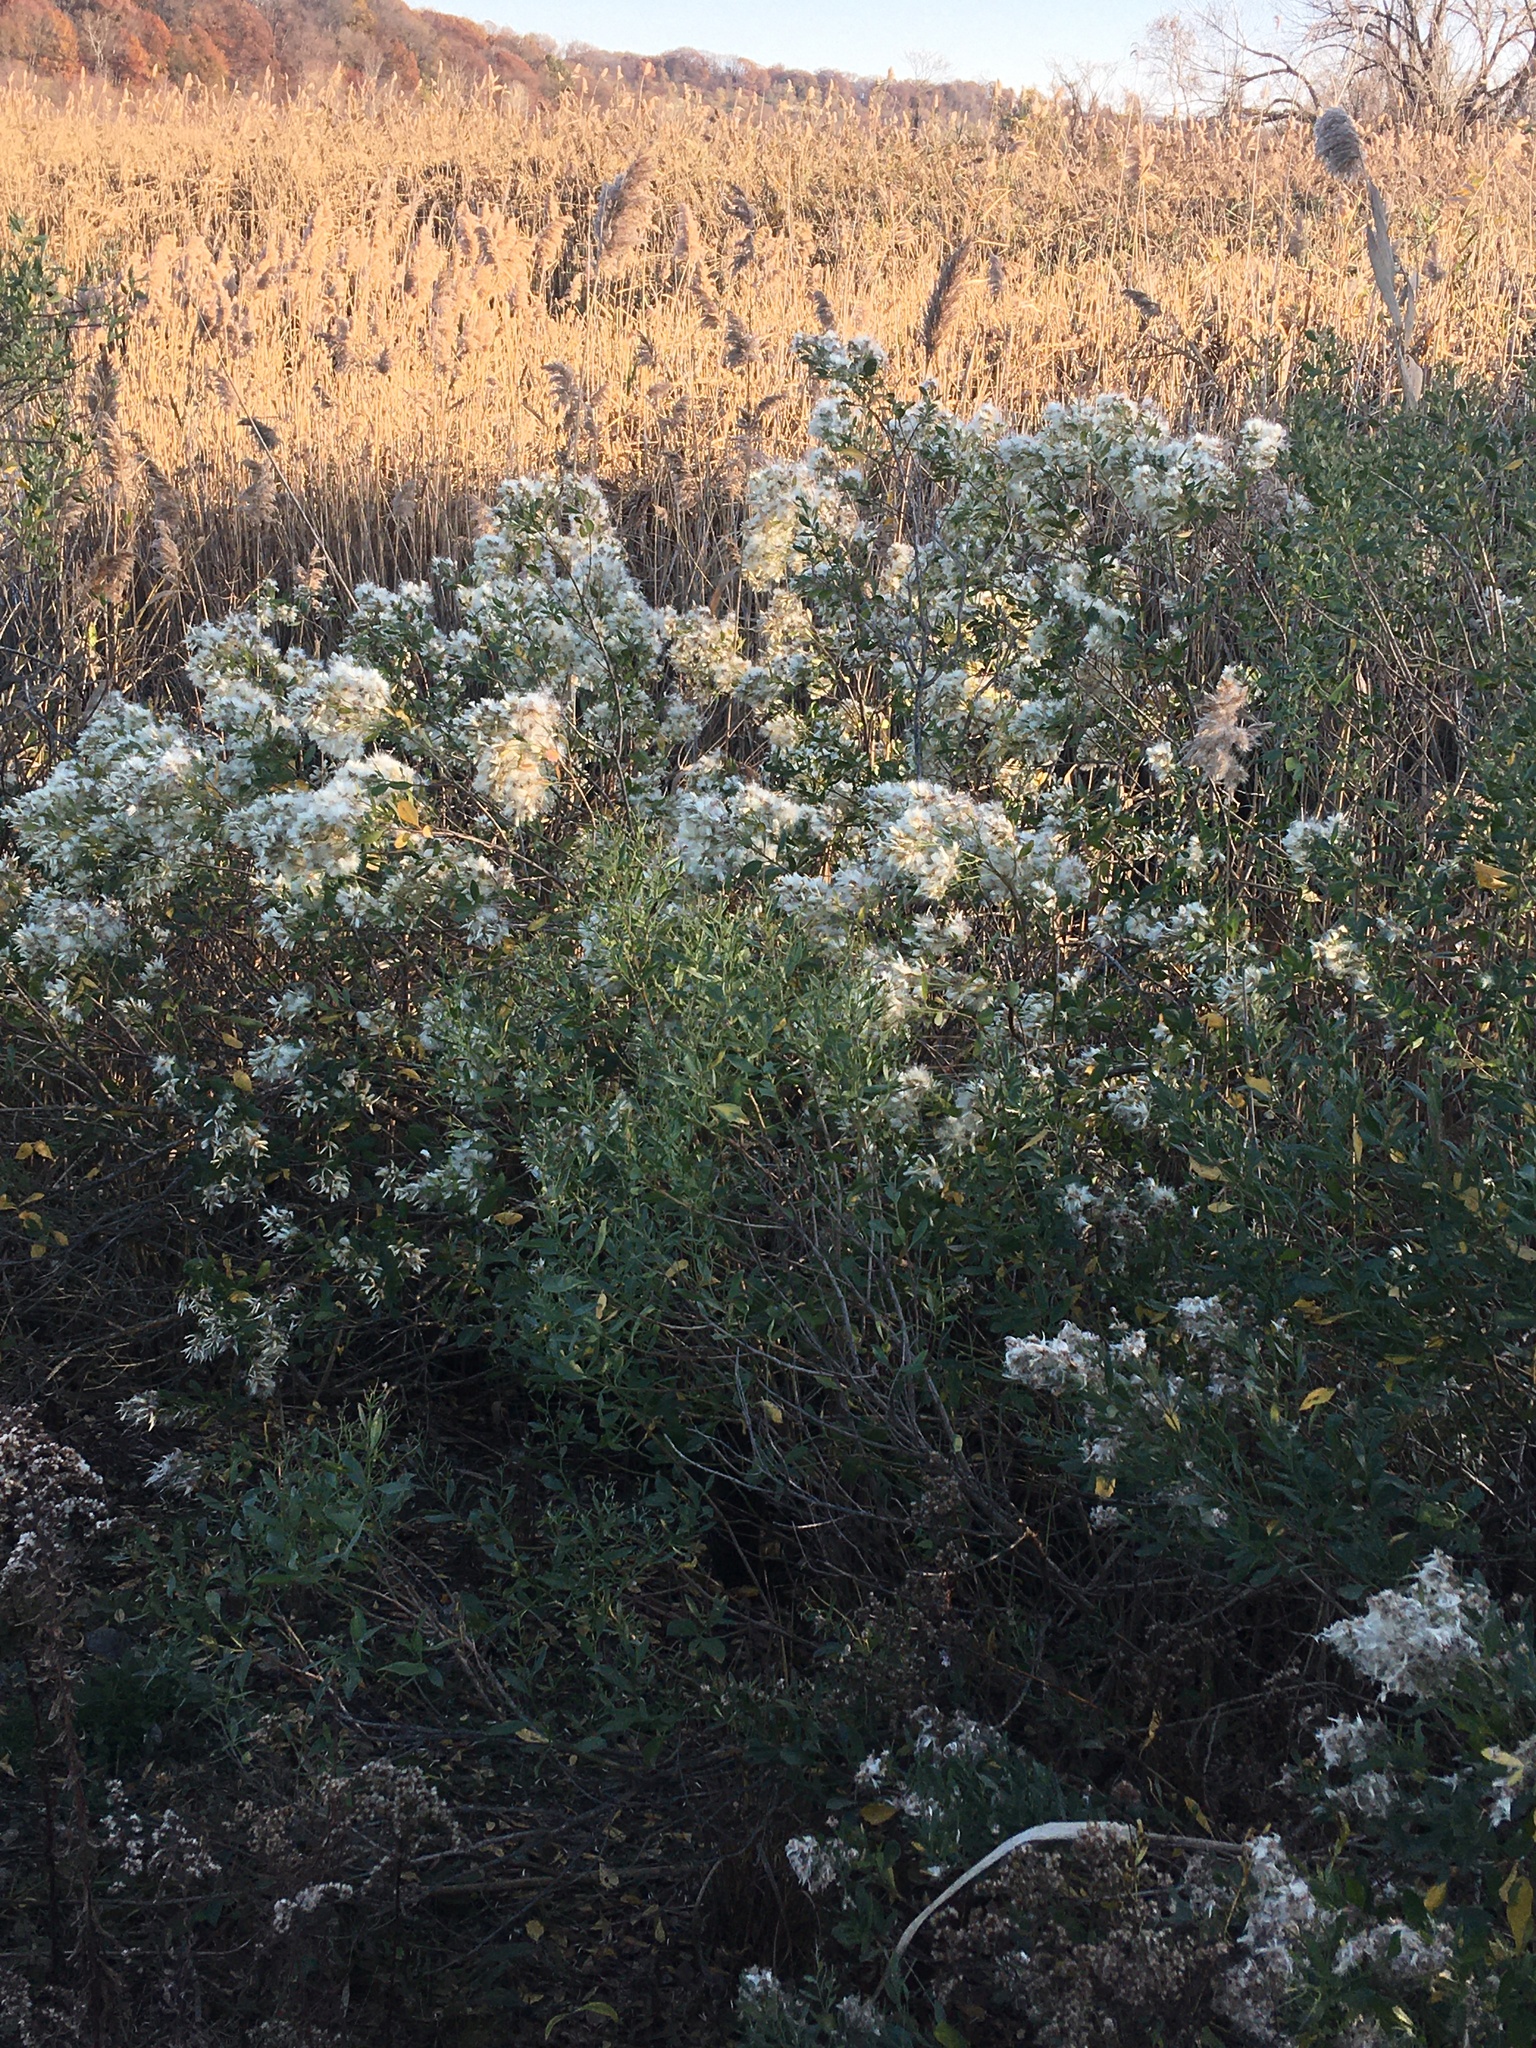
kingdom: Plantae
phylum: Tracheophyta
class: Magnoliopsida
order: Asterales
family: Asteraceae
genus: Baccharis
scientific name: Baccharis halimifolia
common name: Eastern baccharis
